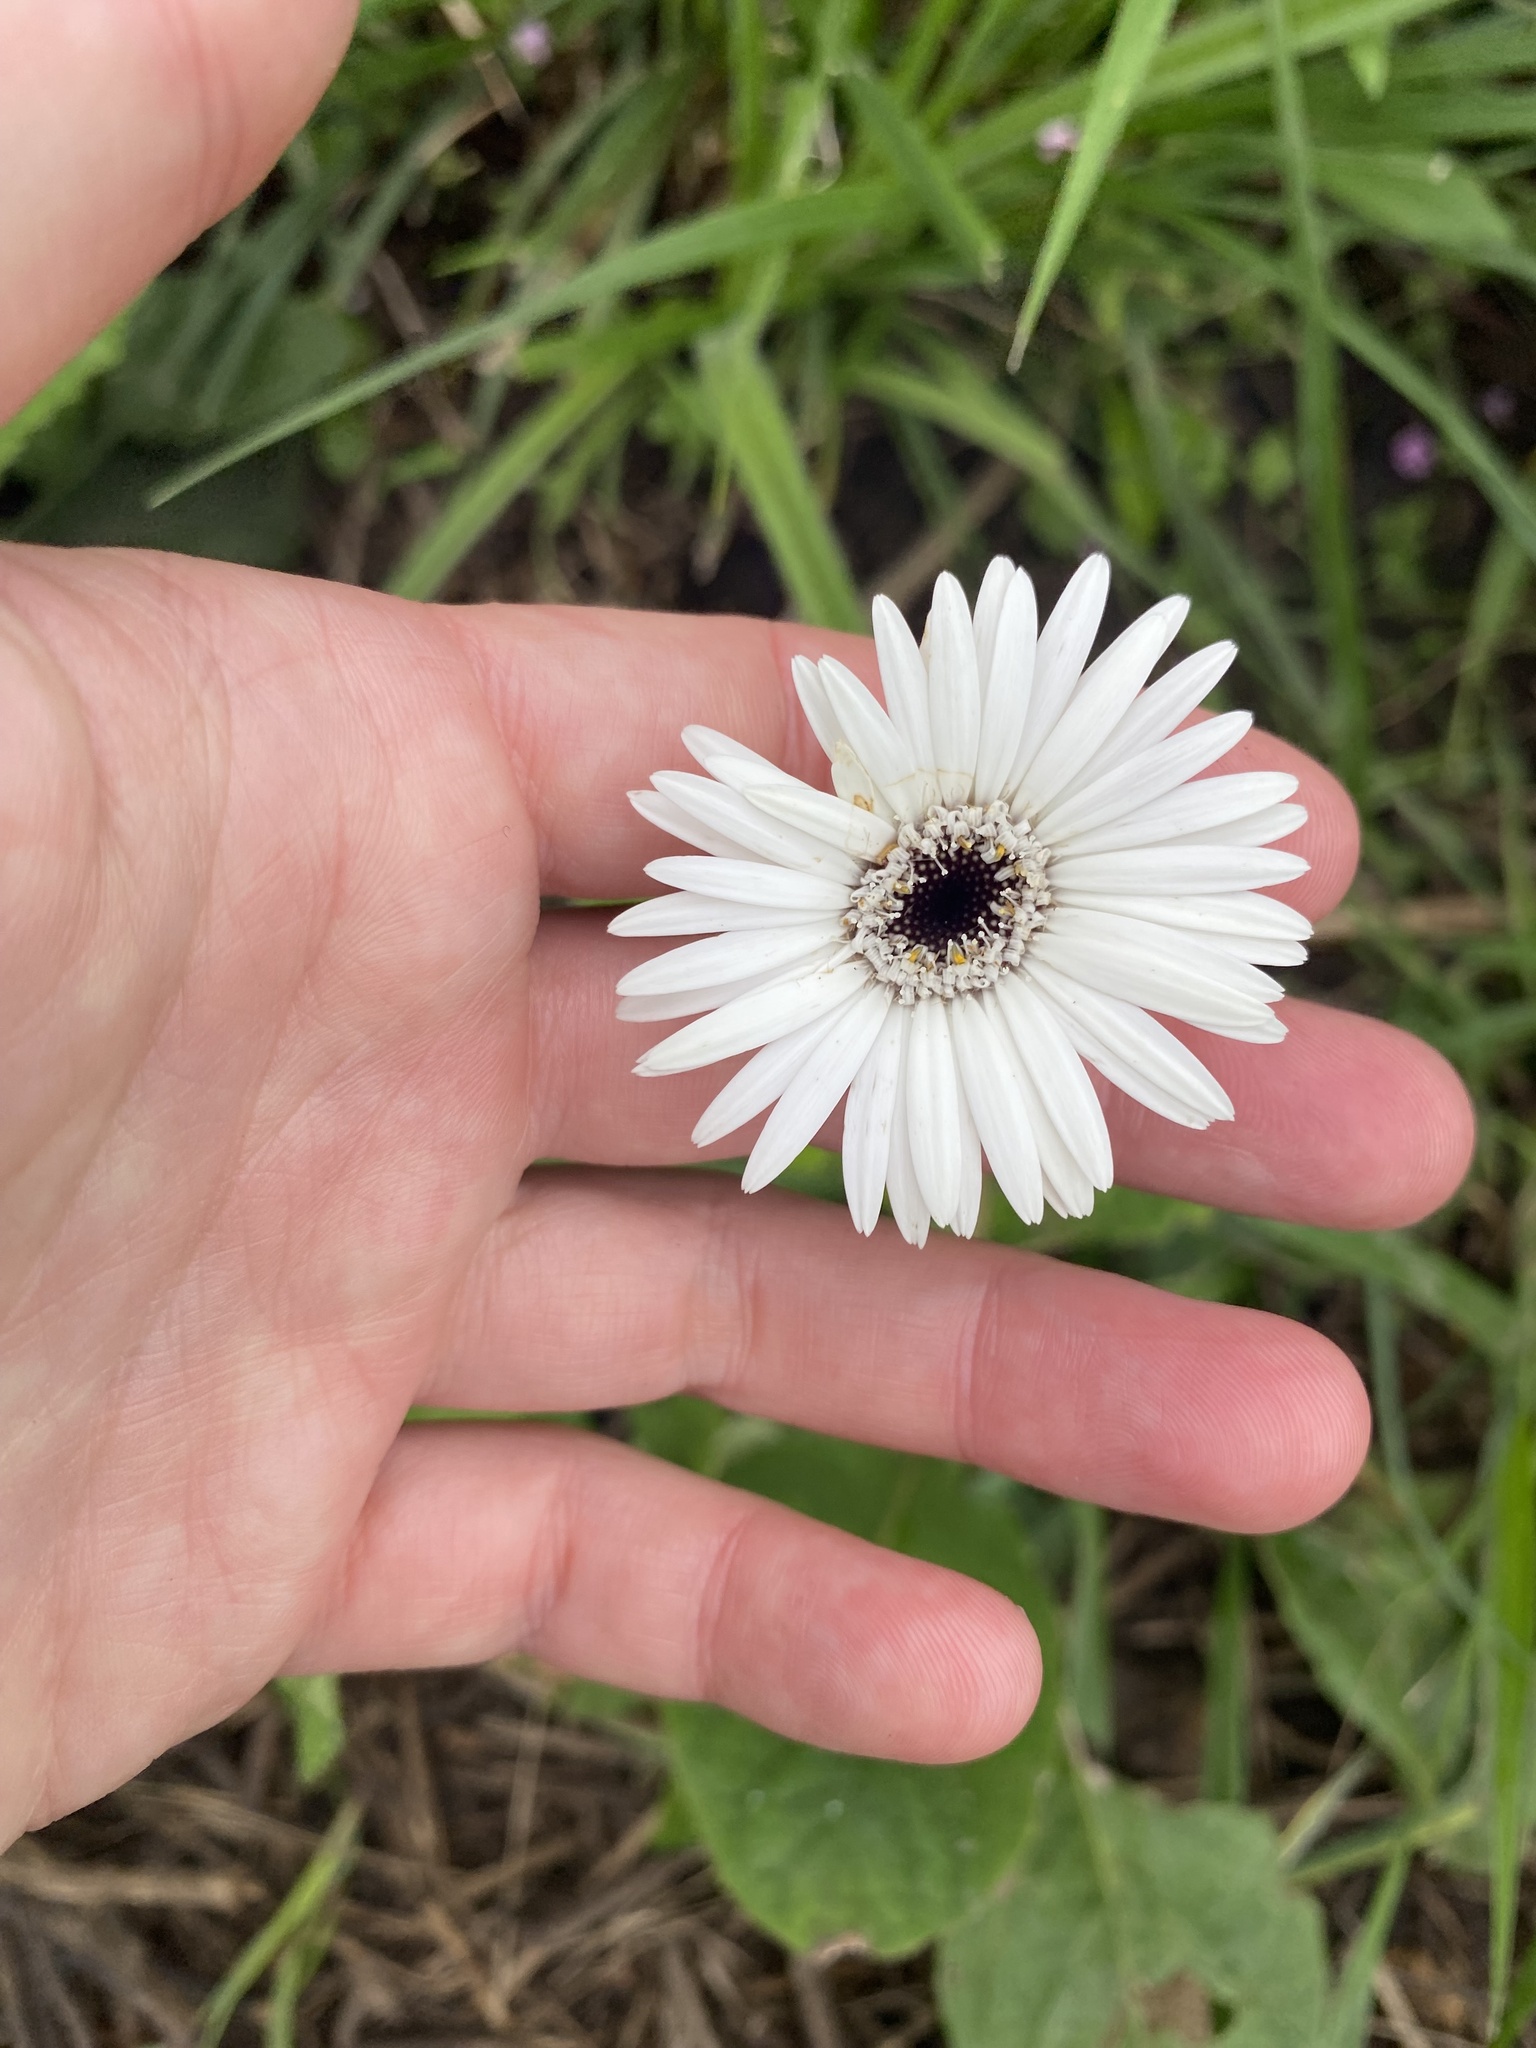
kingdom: Plantae
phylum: Tracheophyta
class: Magnoliopsida
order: Asterales
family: Asteraceae
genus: Gerbera
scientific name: Gerbera ambigua
